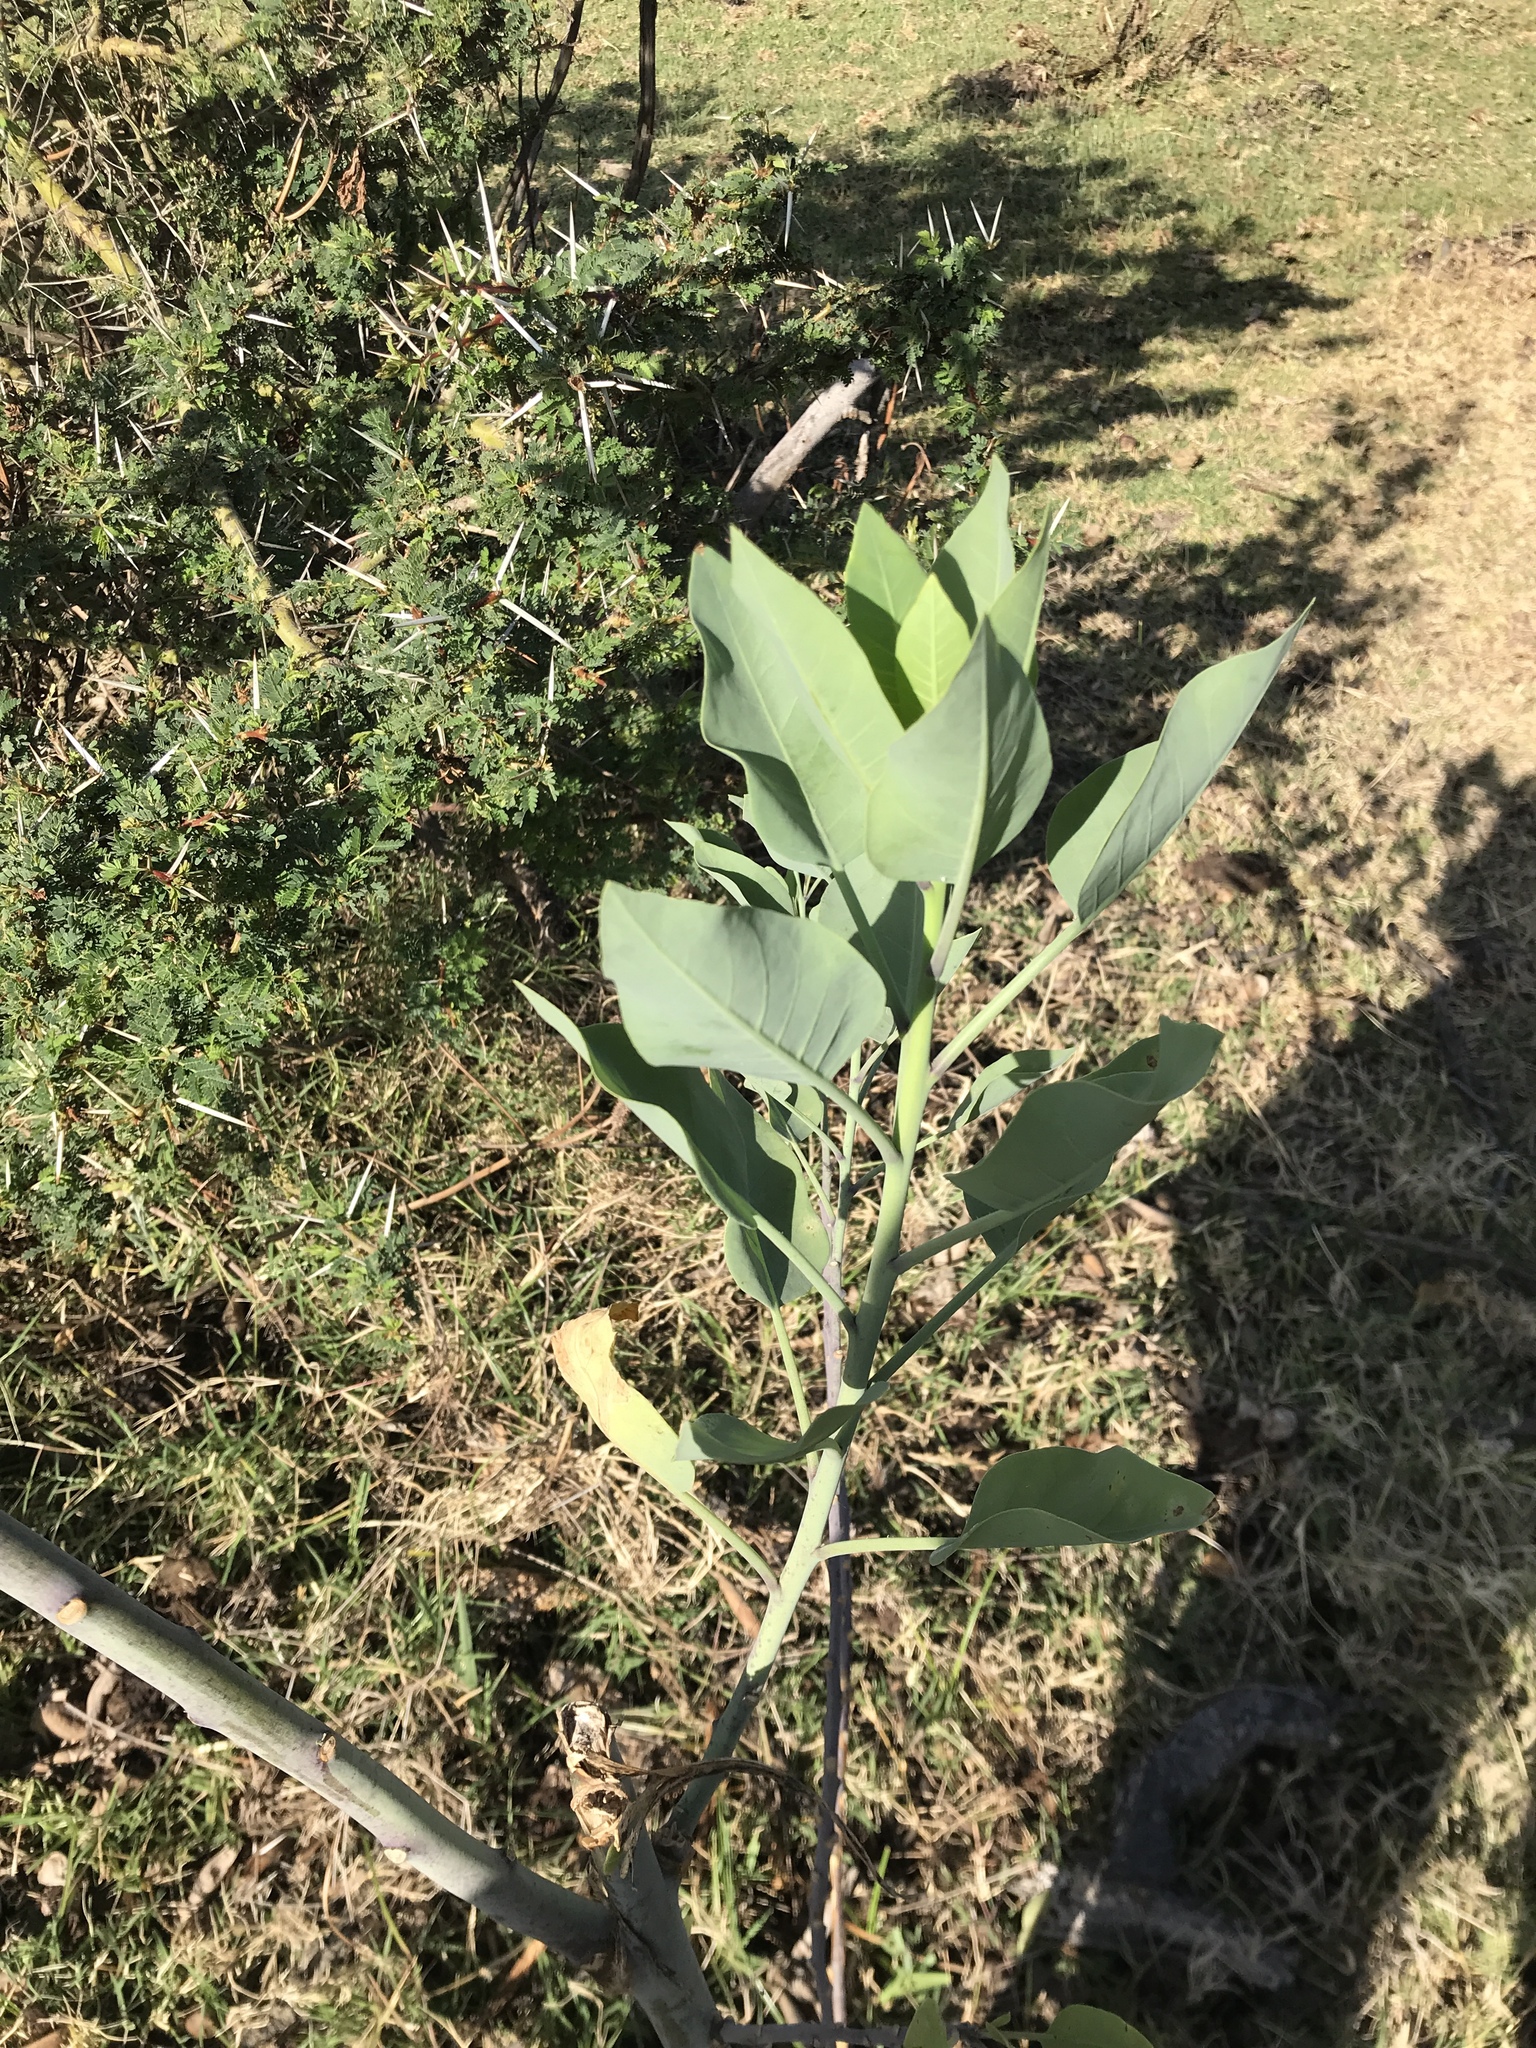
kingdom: Plantae
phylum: Tracheophyta
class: Magnoliopsida
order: Solanales
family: Solanaceae
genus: Nicotiana
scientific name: Nicotiana glauca
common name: Tree tobacco
